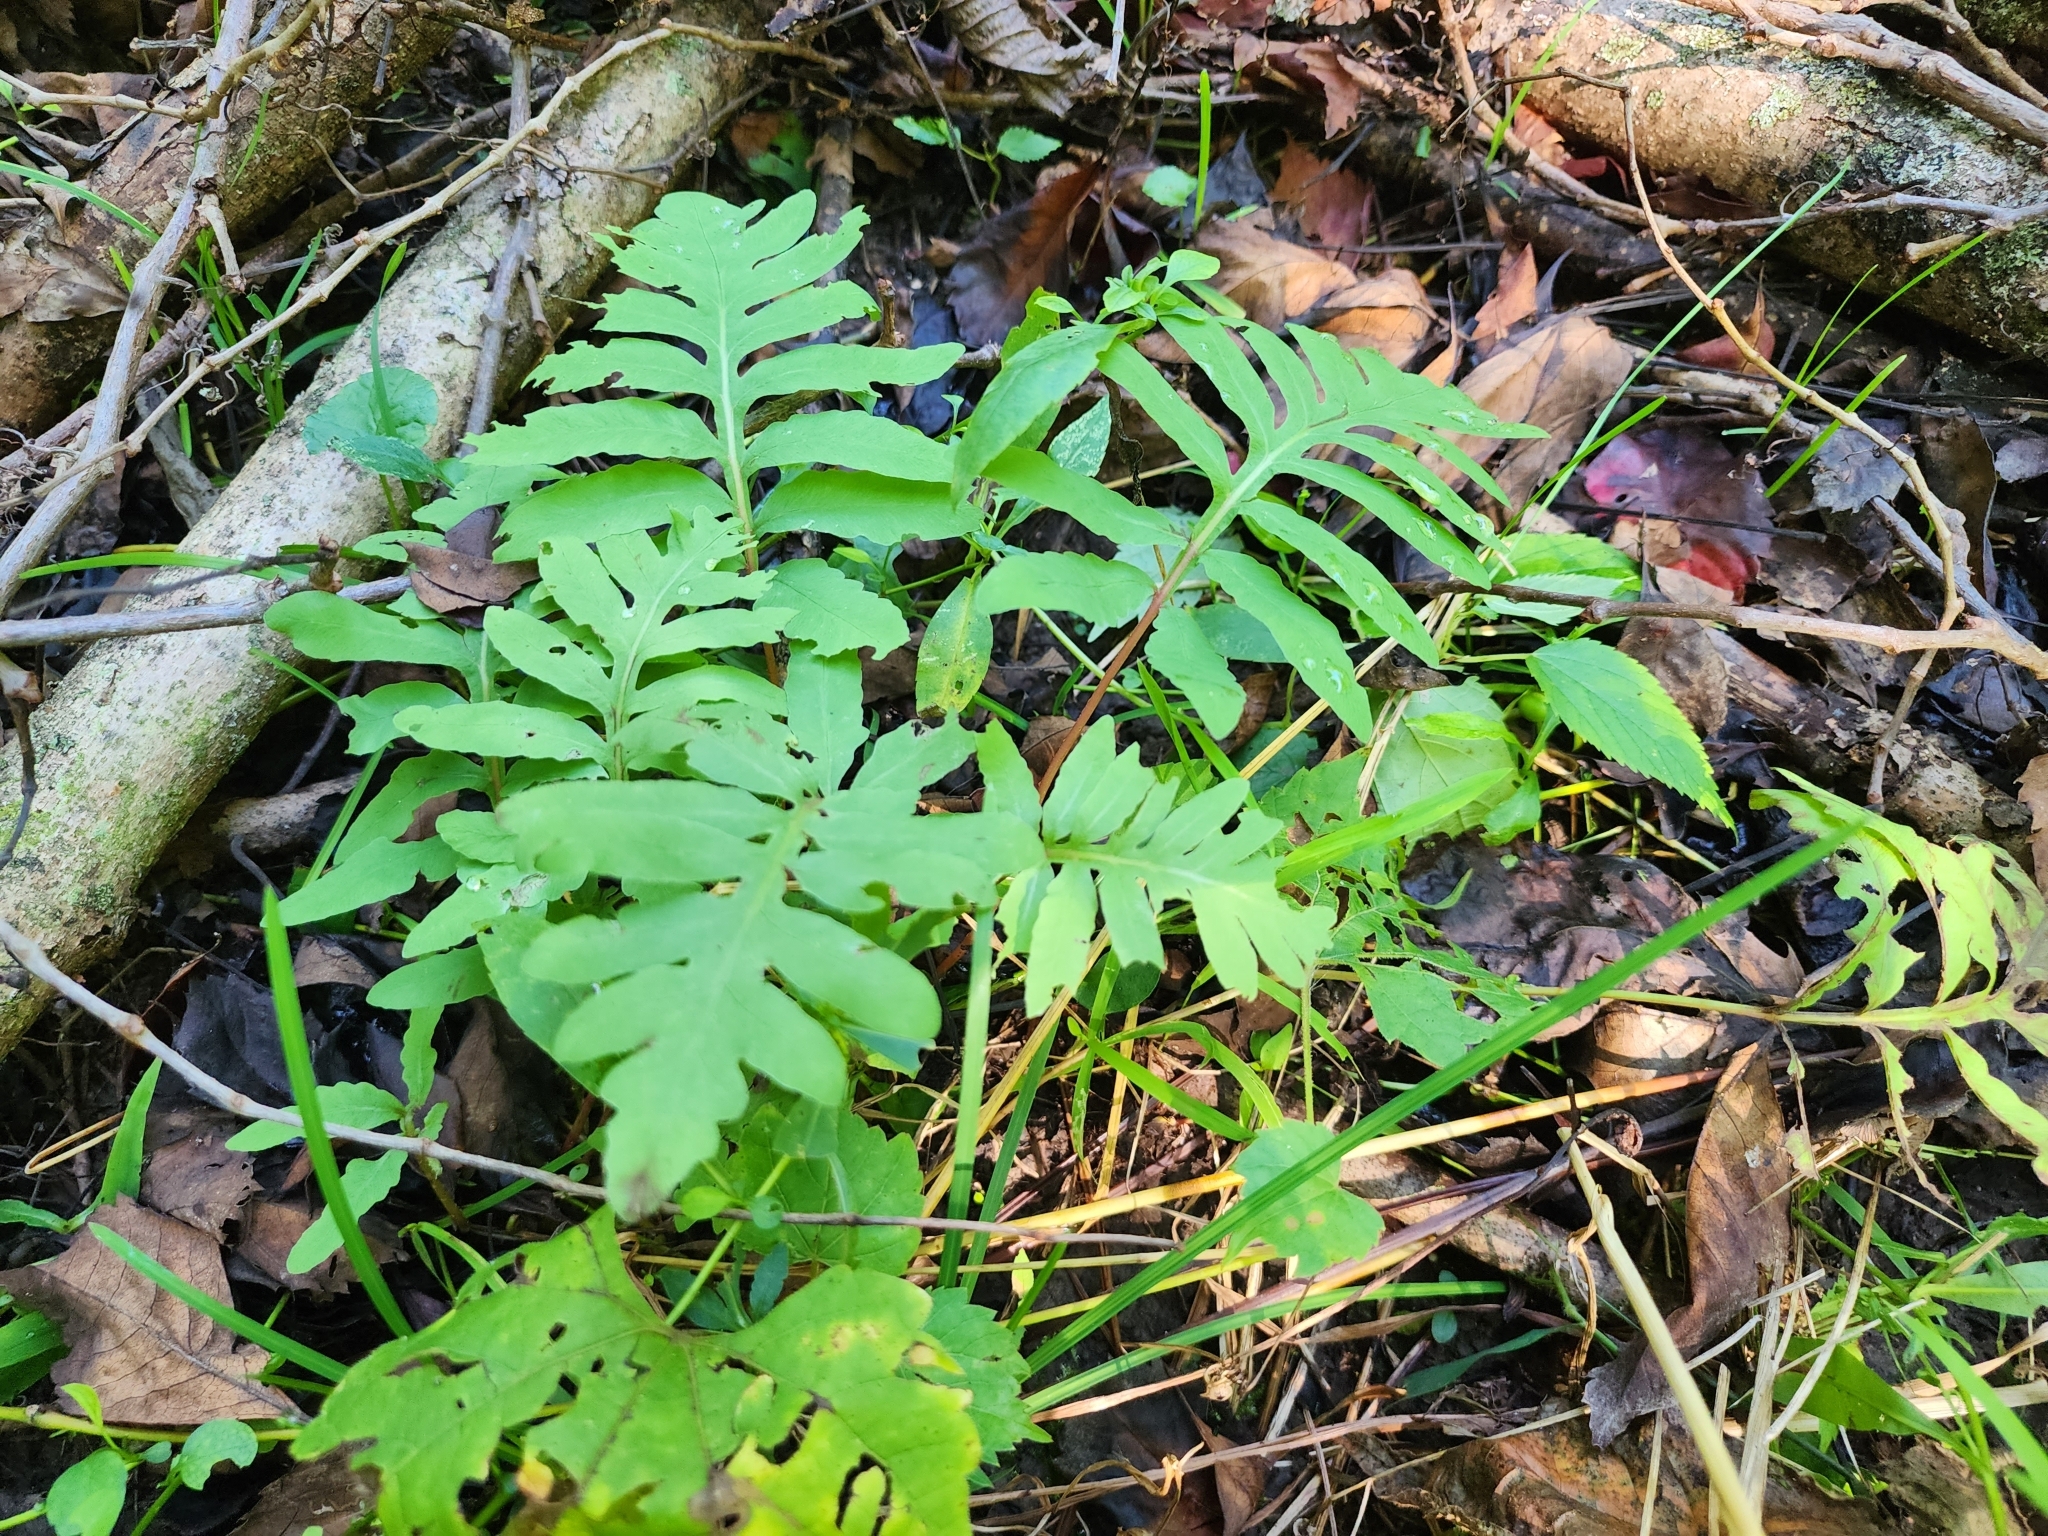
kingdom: Plantae
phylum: Tracheophyta
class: Polypodiopsida
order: Polypodiales
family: Onocleaceae
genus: Onoclea
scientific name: Onoclea sensibilis
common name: Sensitive fern
